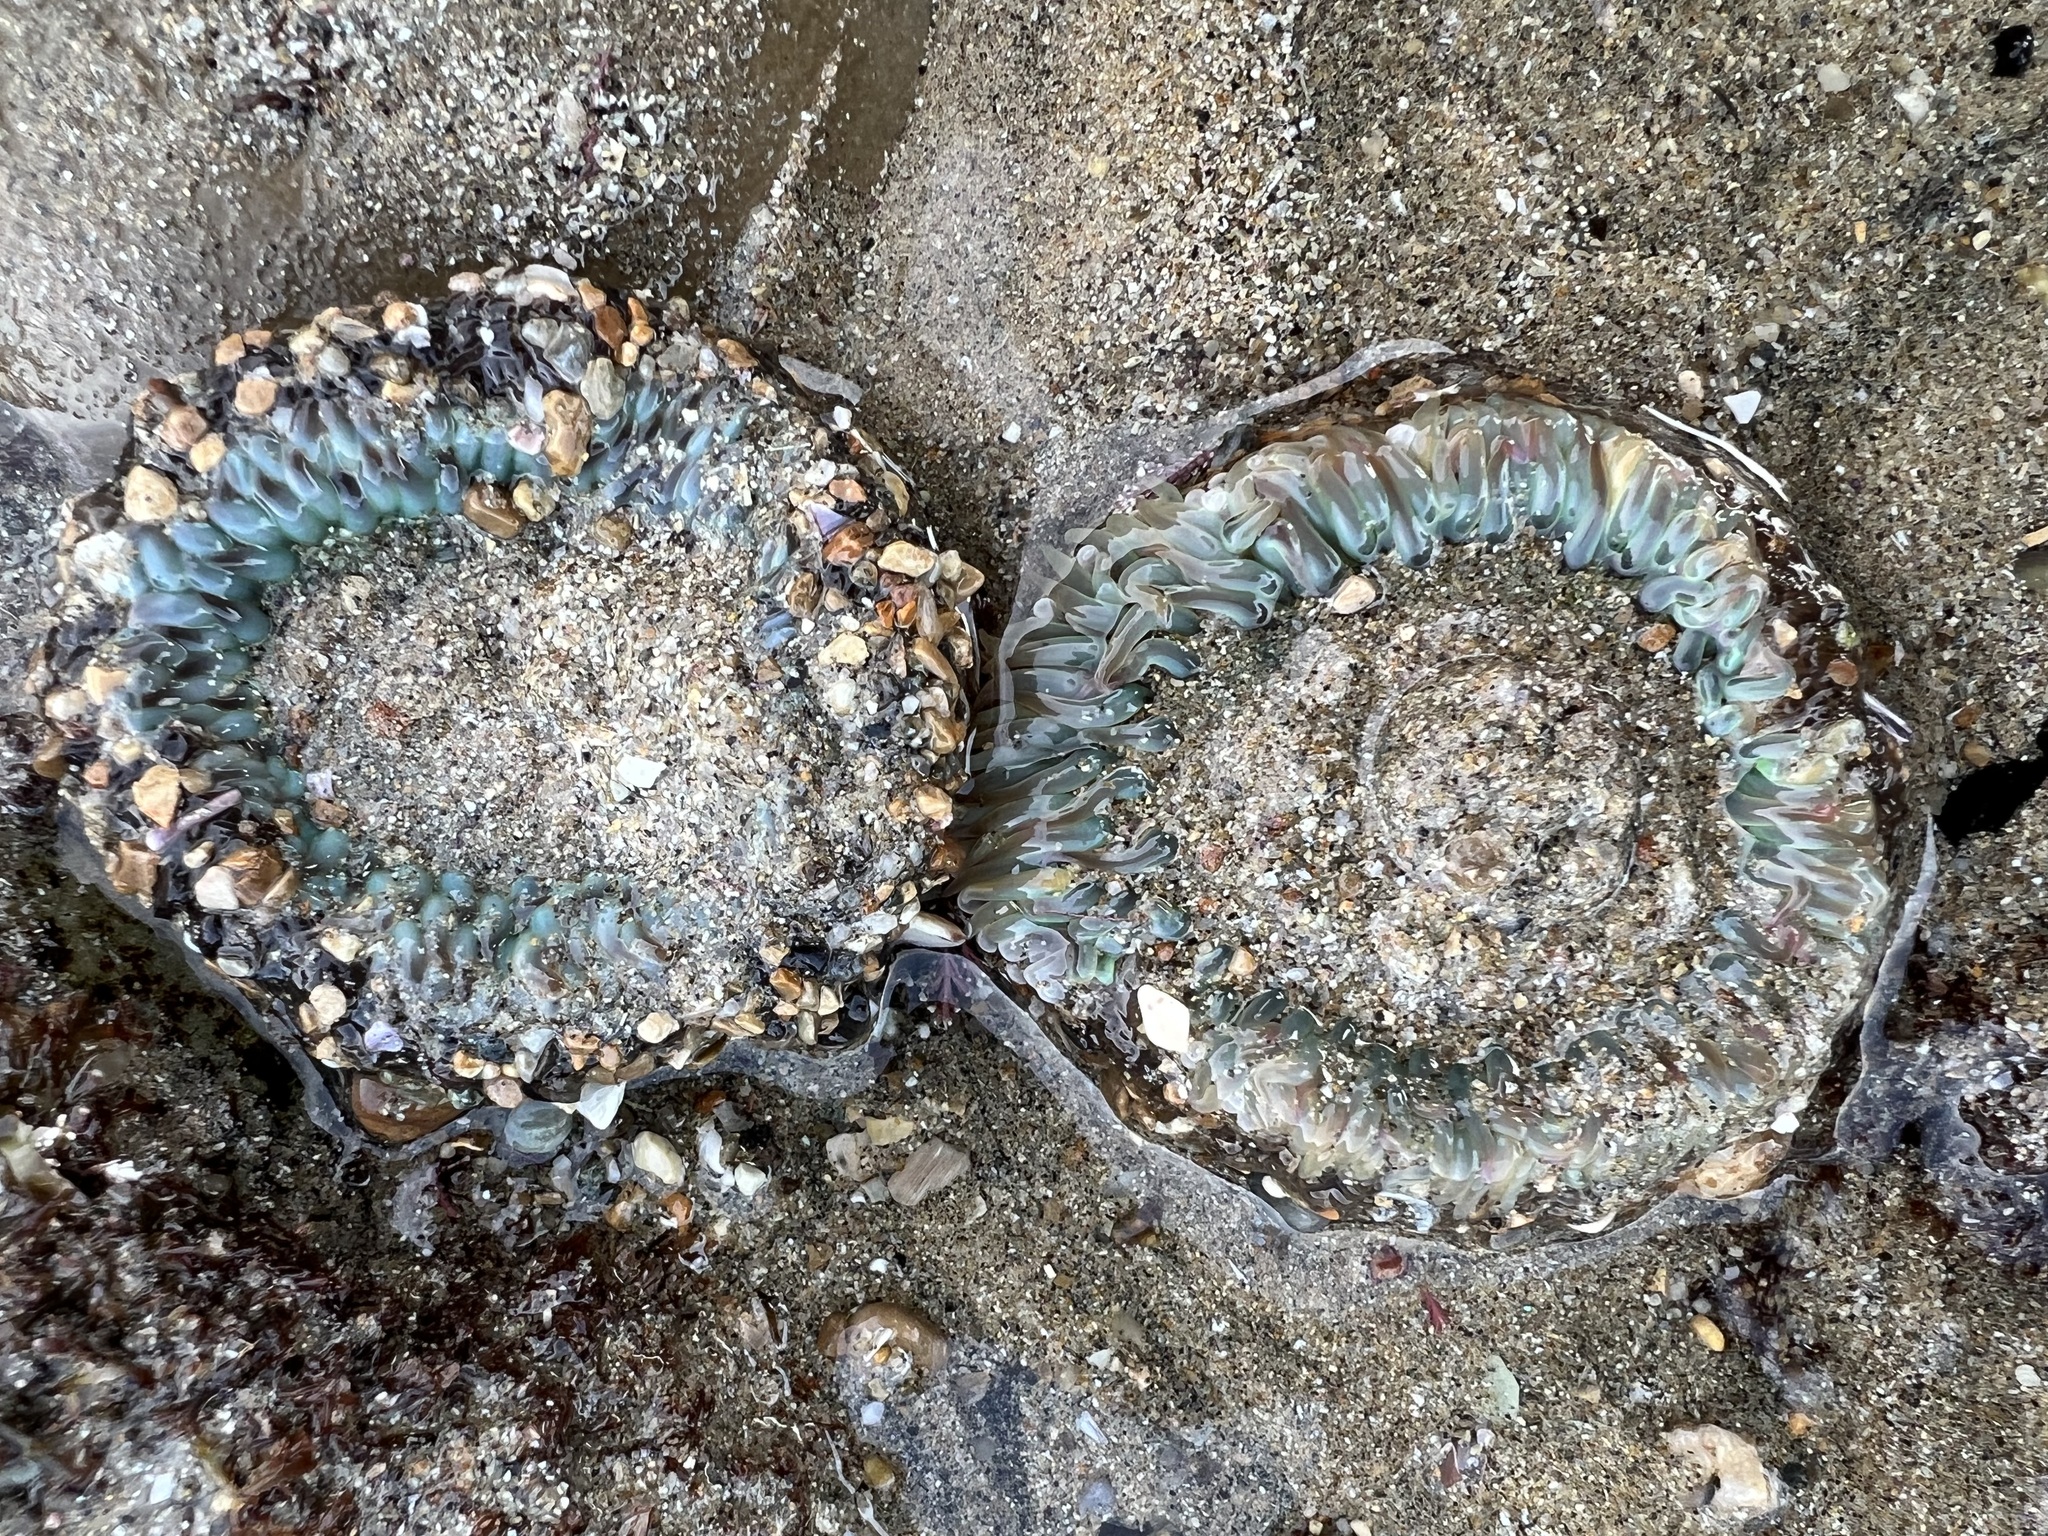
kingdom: Animalia
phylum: Cnidaria
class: Anthozoa
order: Actiniaria
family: Actiniidae
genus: Anthopleura
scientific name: Anthopleura sola
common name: Sun anemone
